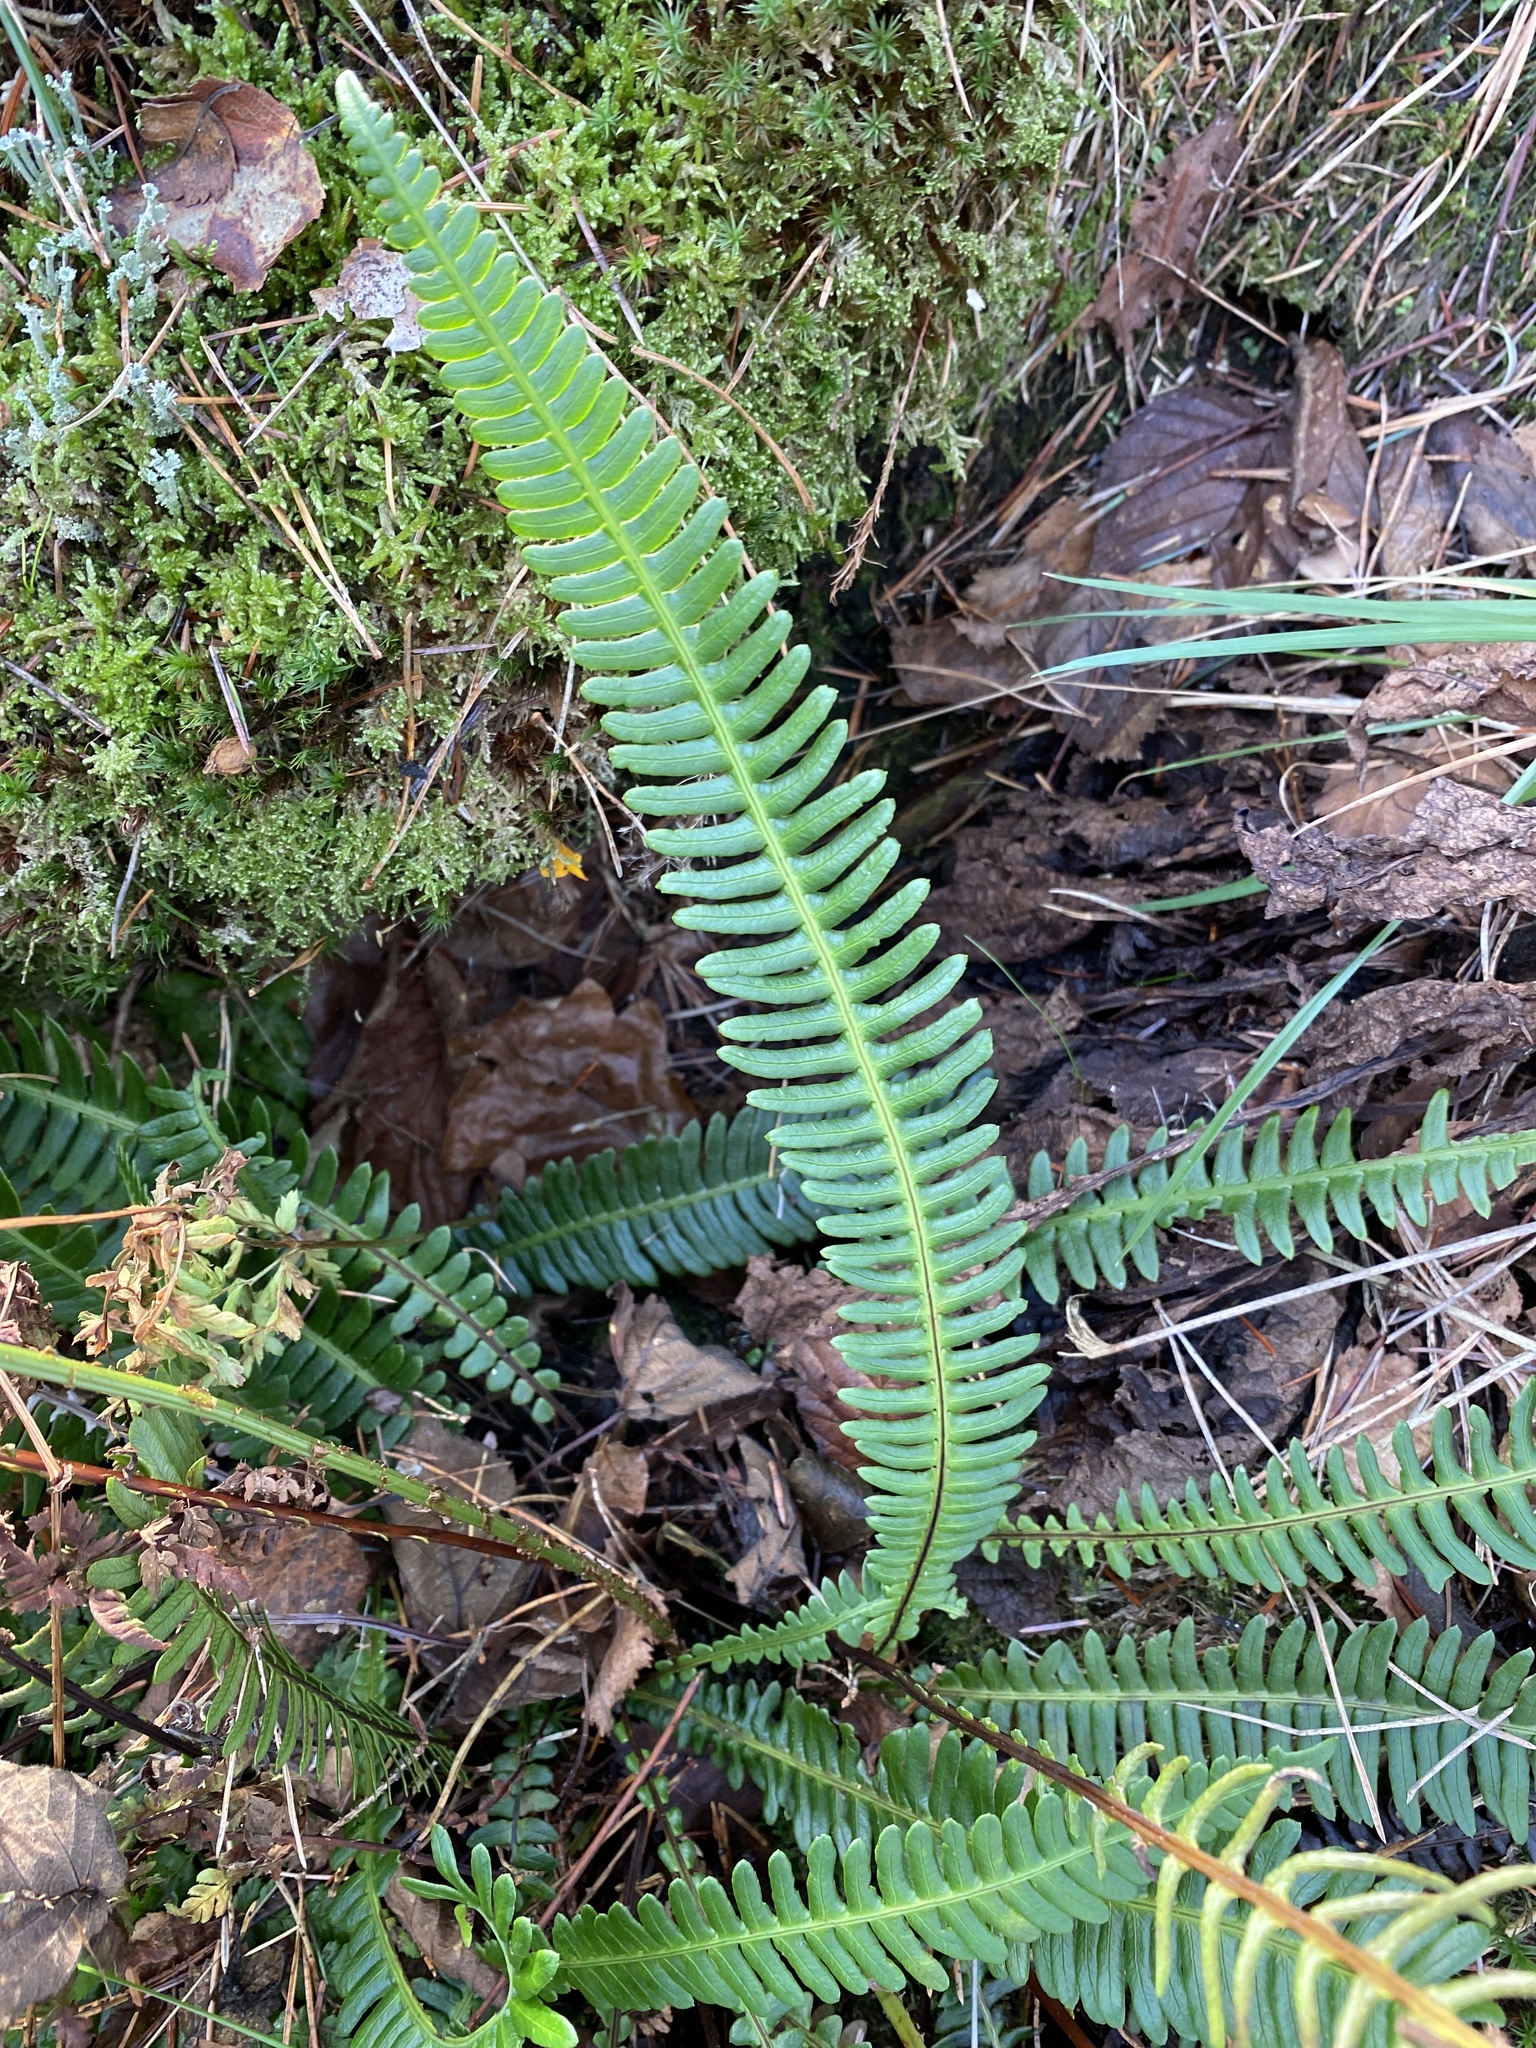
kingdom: Plantae
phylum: Tracheophyta
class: Polypodiopsida
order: Polypodiales
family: Blechnaceae
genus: Struthiopteris
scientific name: Struthiopteris spicant
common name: Deer fern
